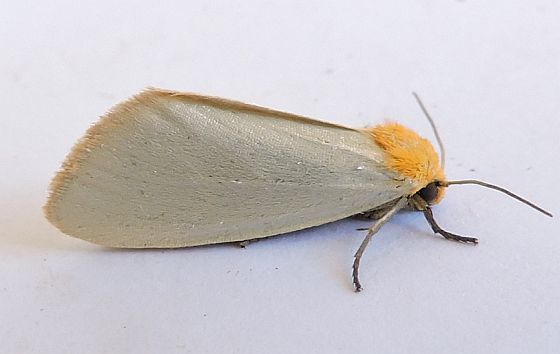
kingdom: Animalia
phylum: Arthropoda
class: Insecta
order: Lepidoptera
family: Noctuidae
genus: Chrysoecia
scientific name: Chrysoecia thoracica
